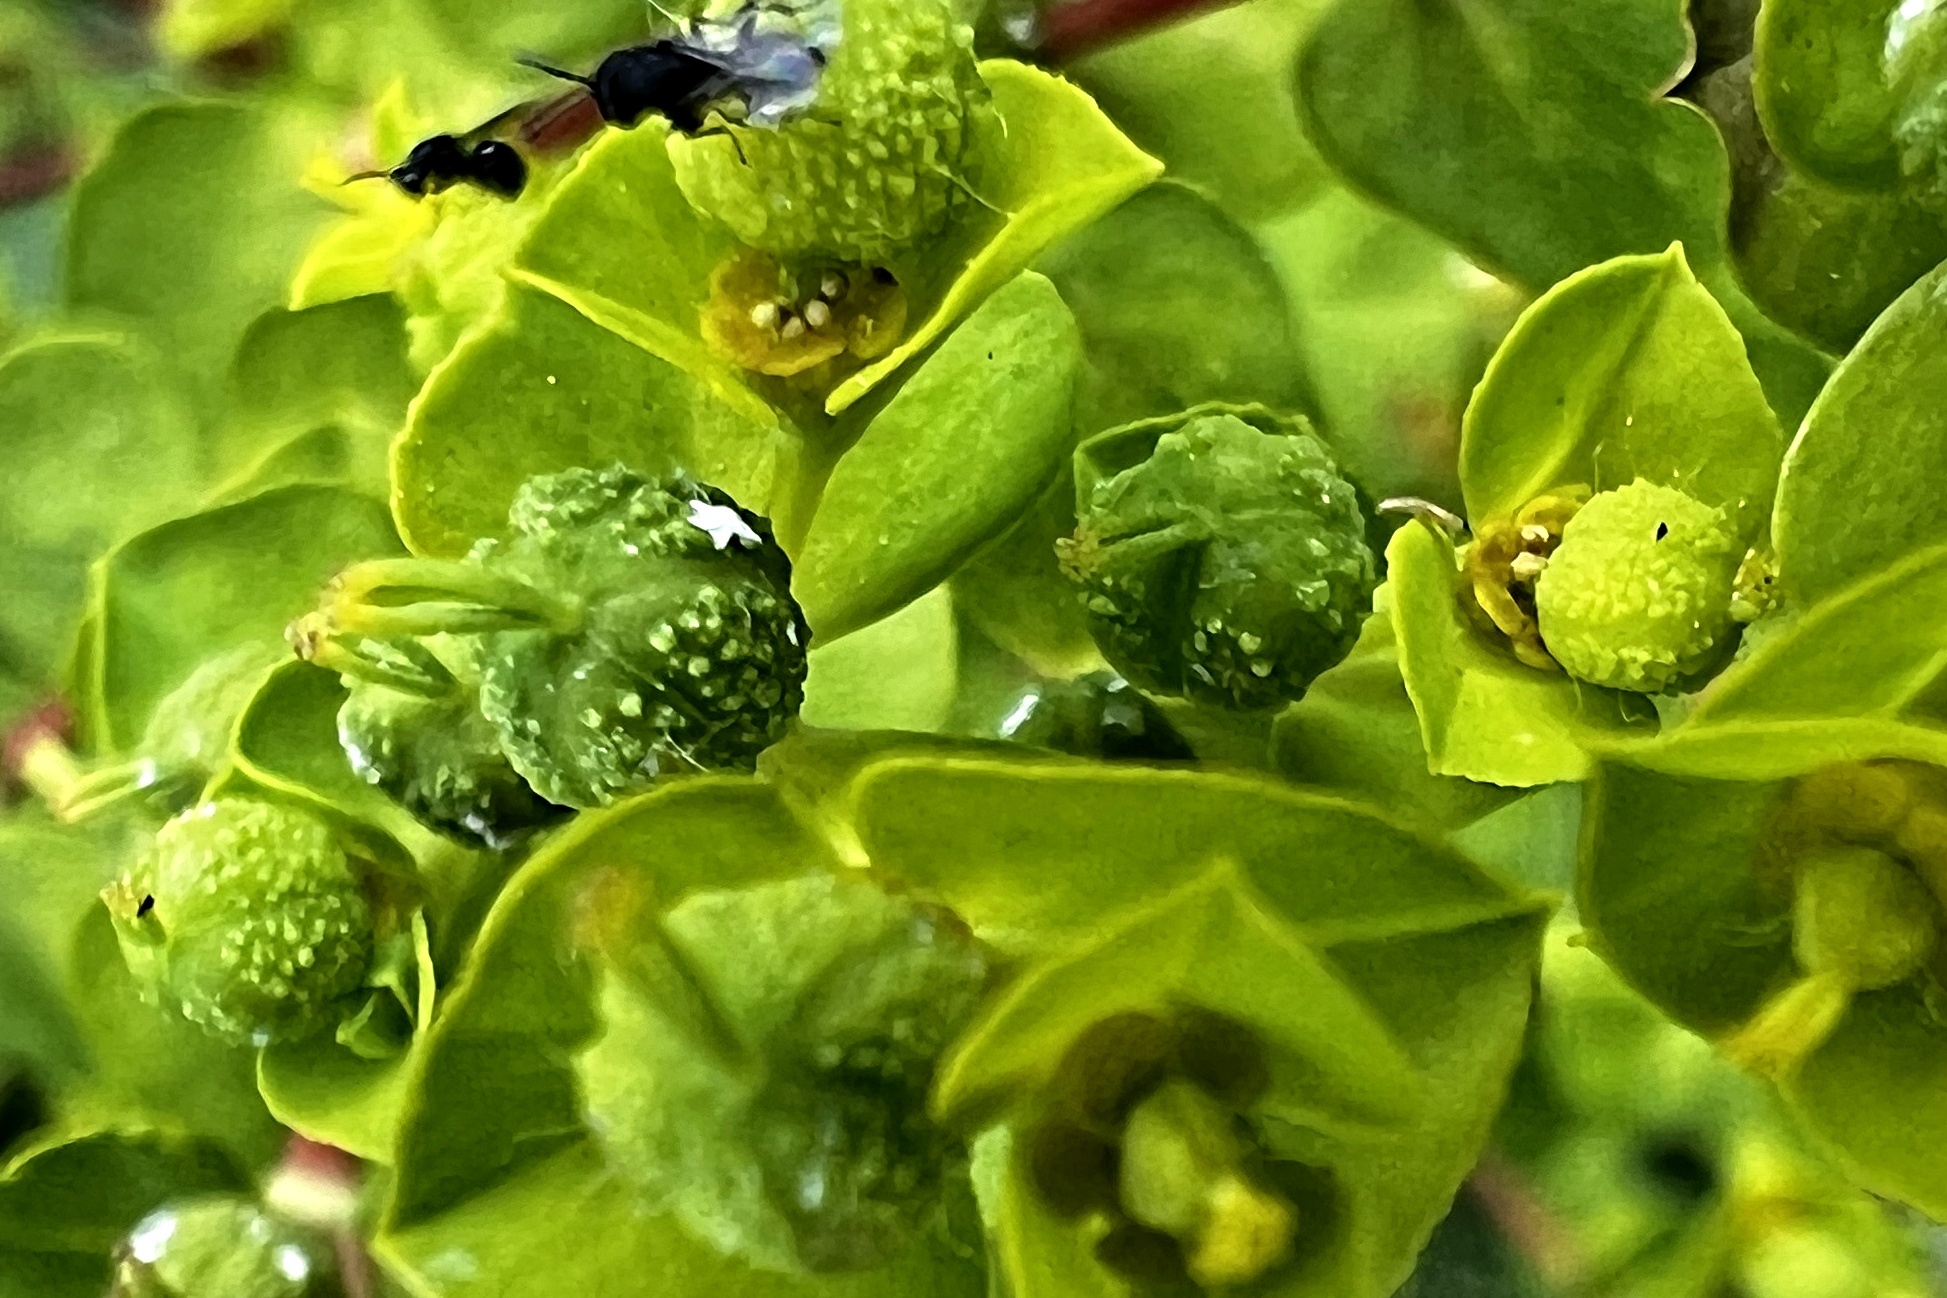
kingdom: Plantae
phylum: Tracheophyta
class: Magnoliopsida
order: Malpighiales
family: Euphorbiaceae
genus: Euphorbia
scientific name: Euphorbia platyphyllos
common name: Broad-leaved spurge
